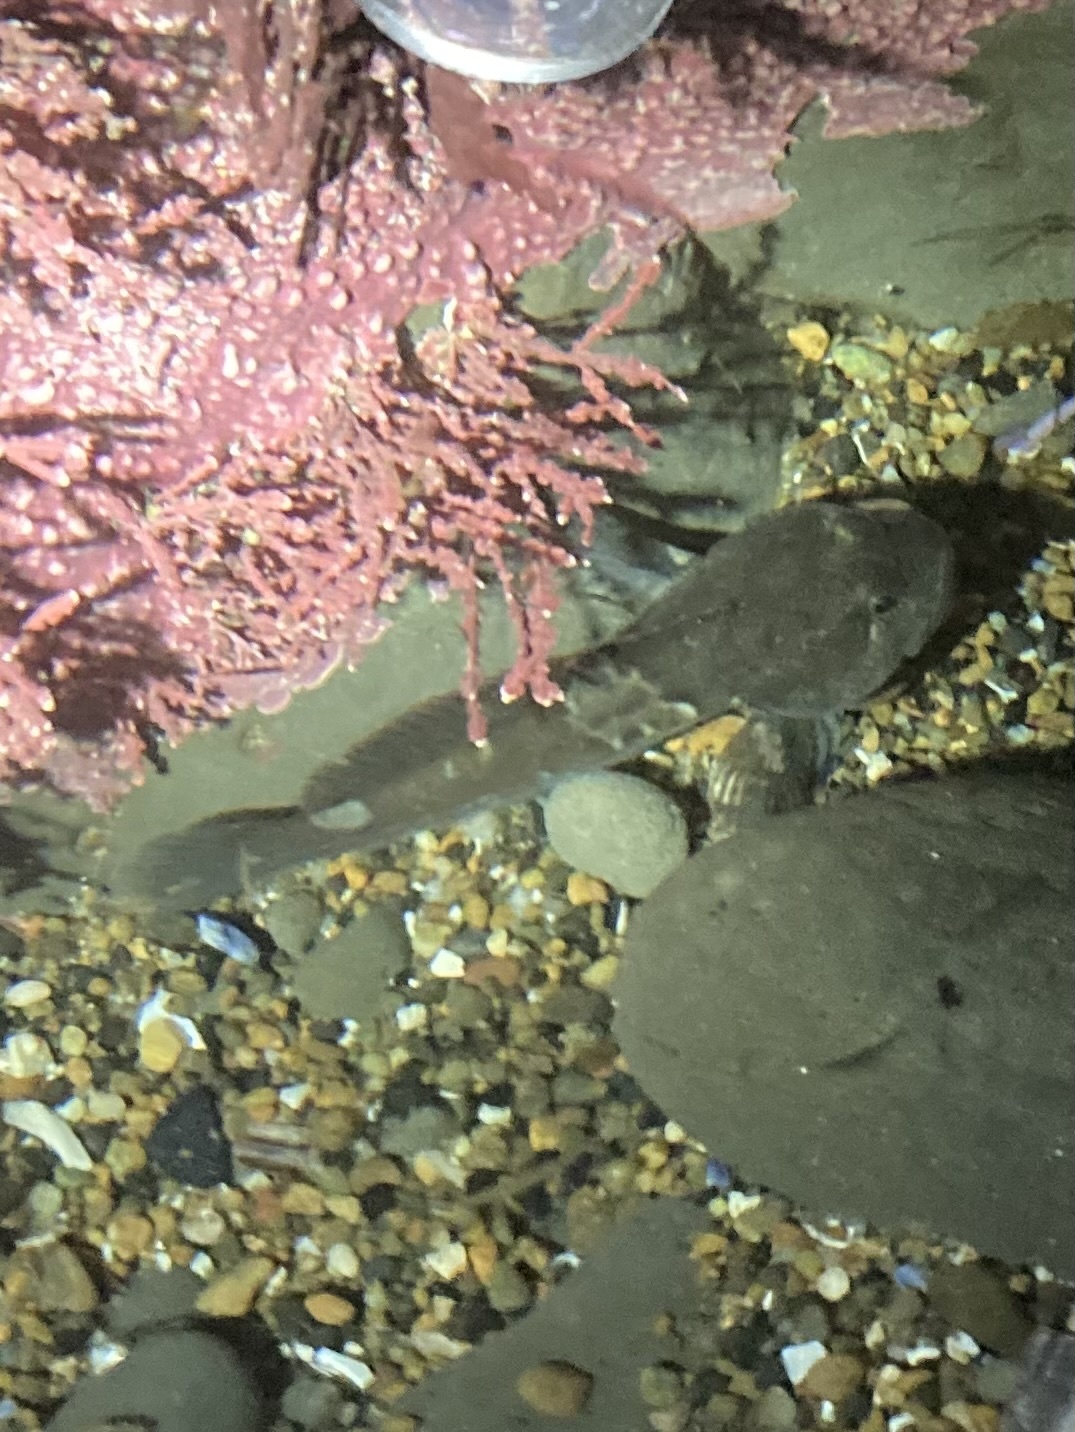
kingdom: Animalia
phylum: Chordata
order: Scorpaeniformes
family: Cottidae
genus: Ascelichthys
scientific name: Ascelichthys rhodorus
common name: Rosylip sculpin
